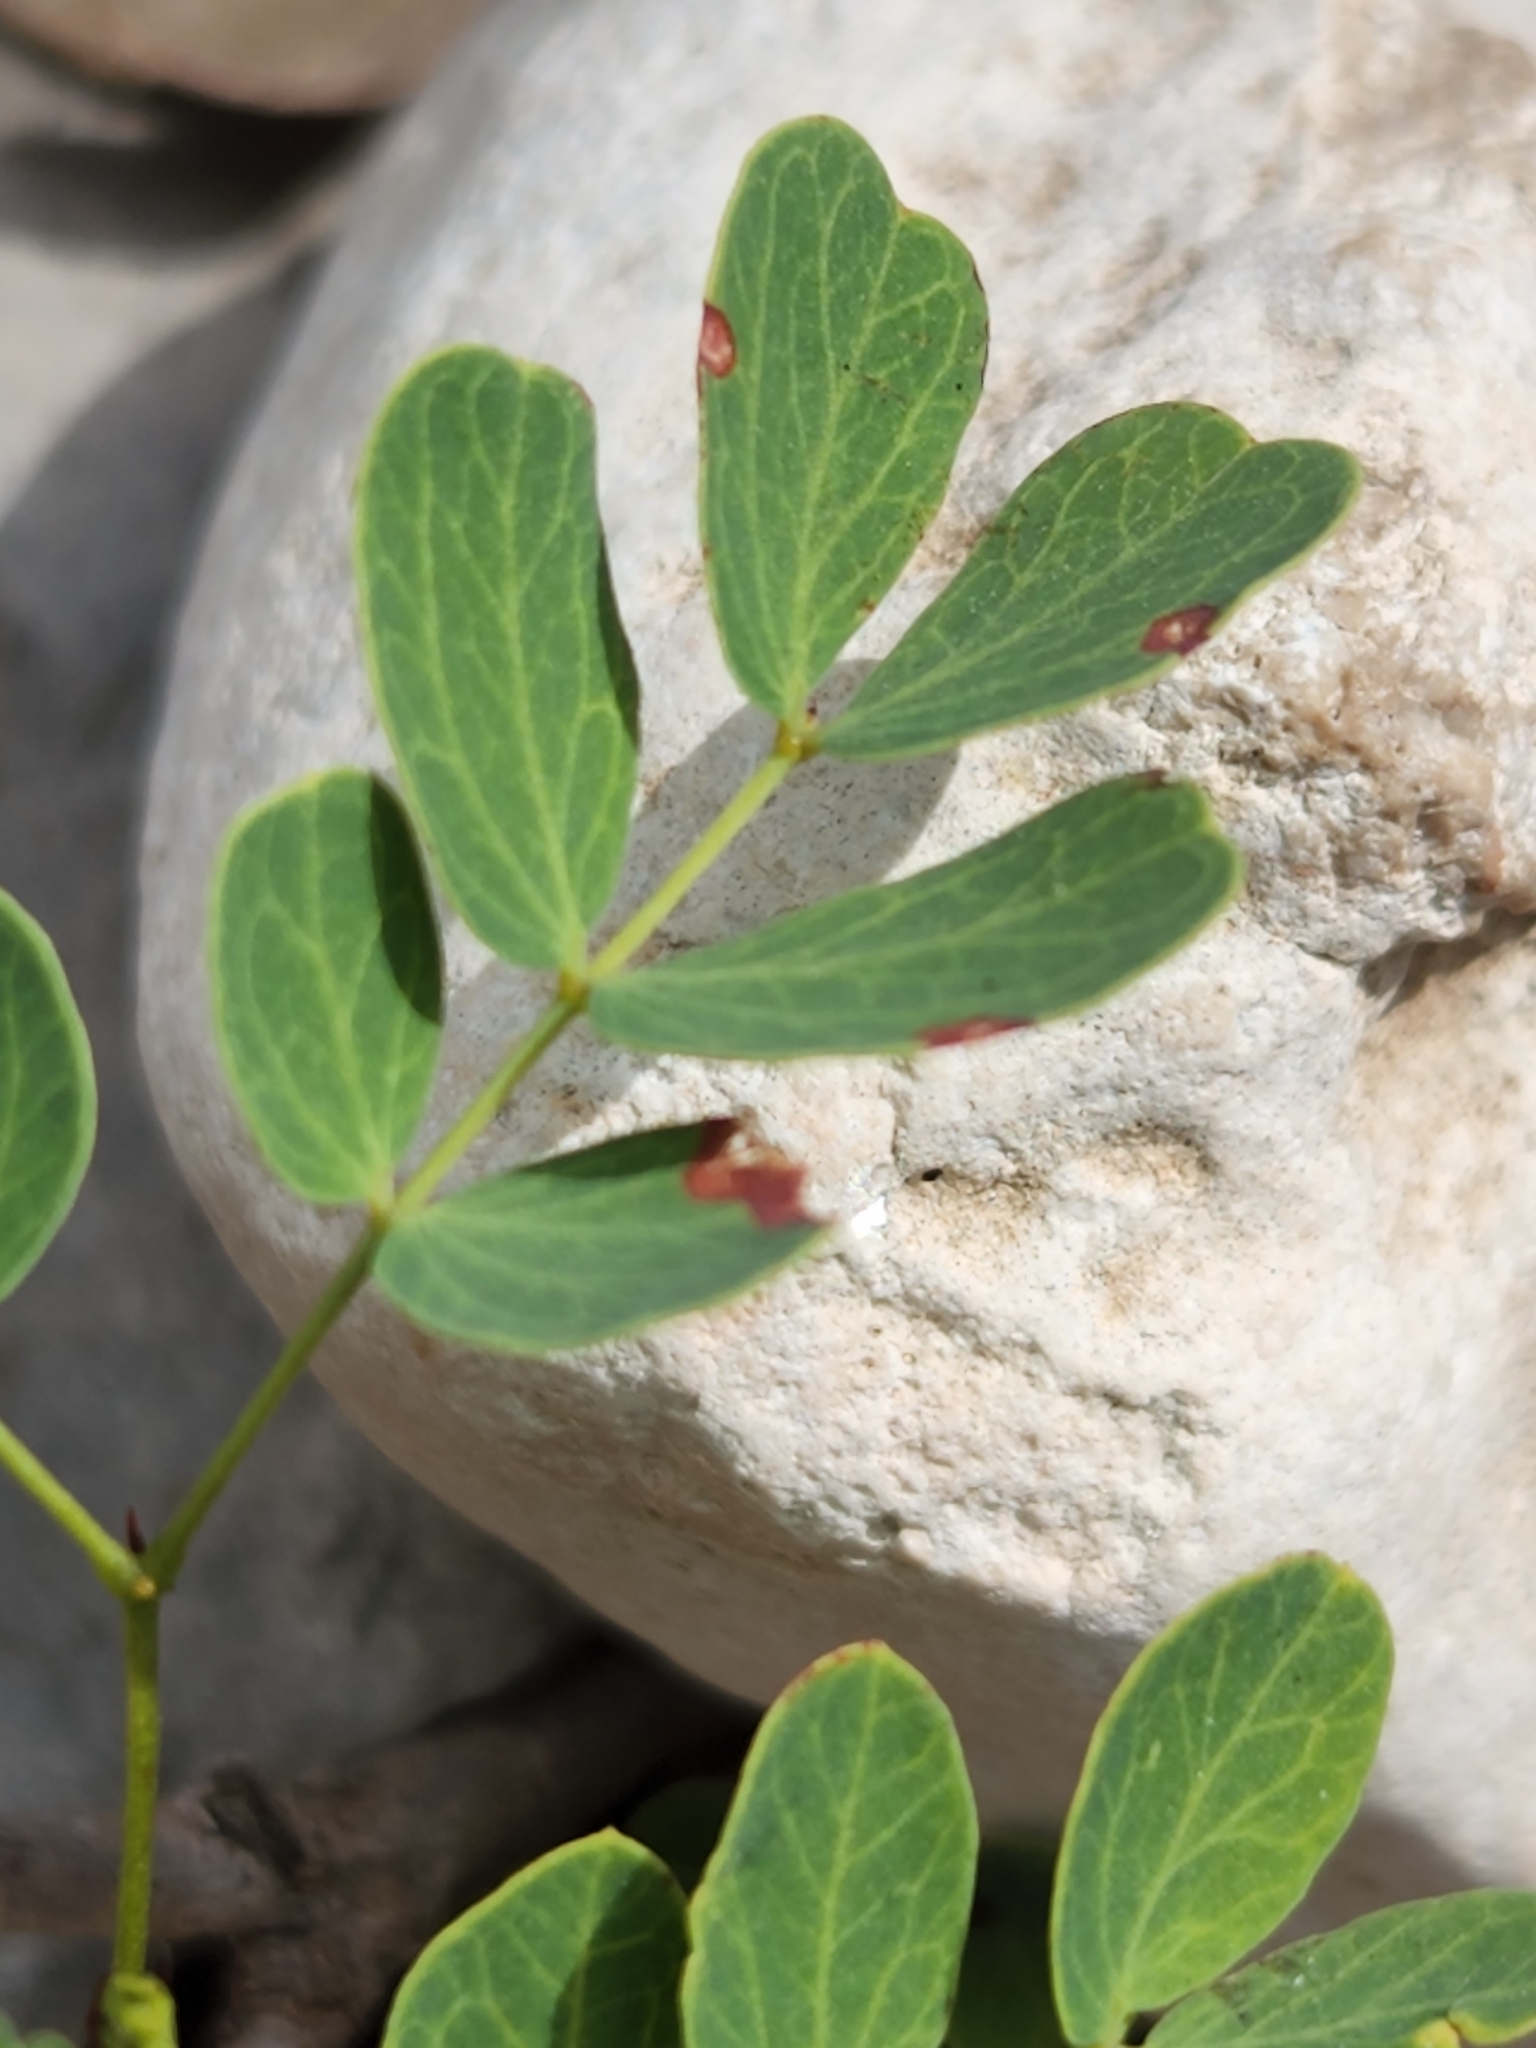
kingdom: Plantae
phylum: Tracheophyta
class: Magnoliopsida
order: Fabales
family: Fabaceae
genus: Leucaena
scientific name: Leucaena retusa
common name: Littleleaf leadtree
